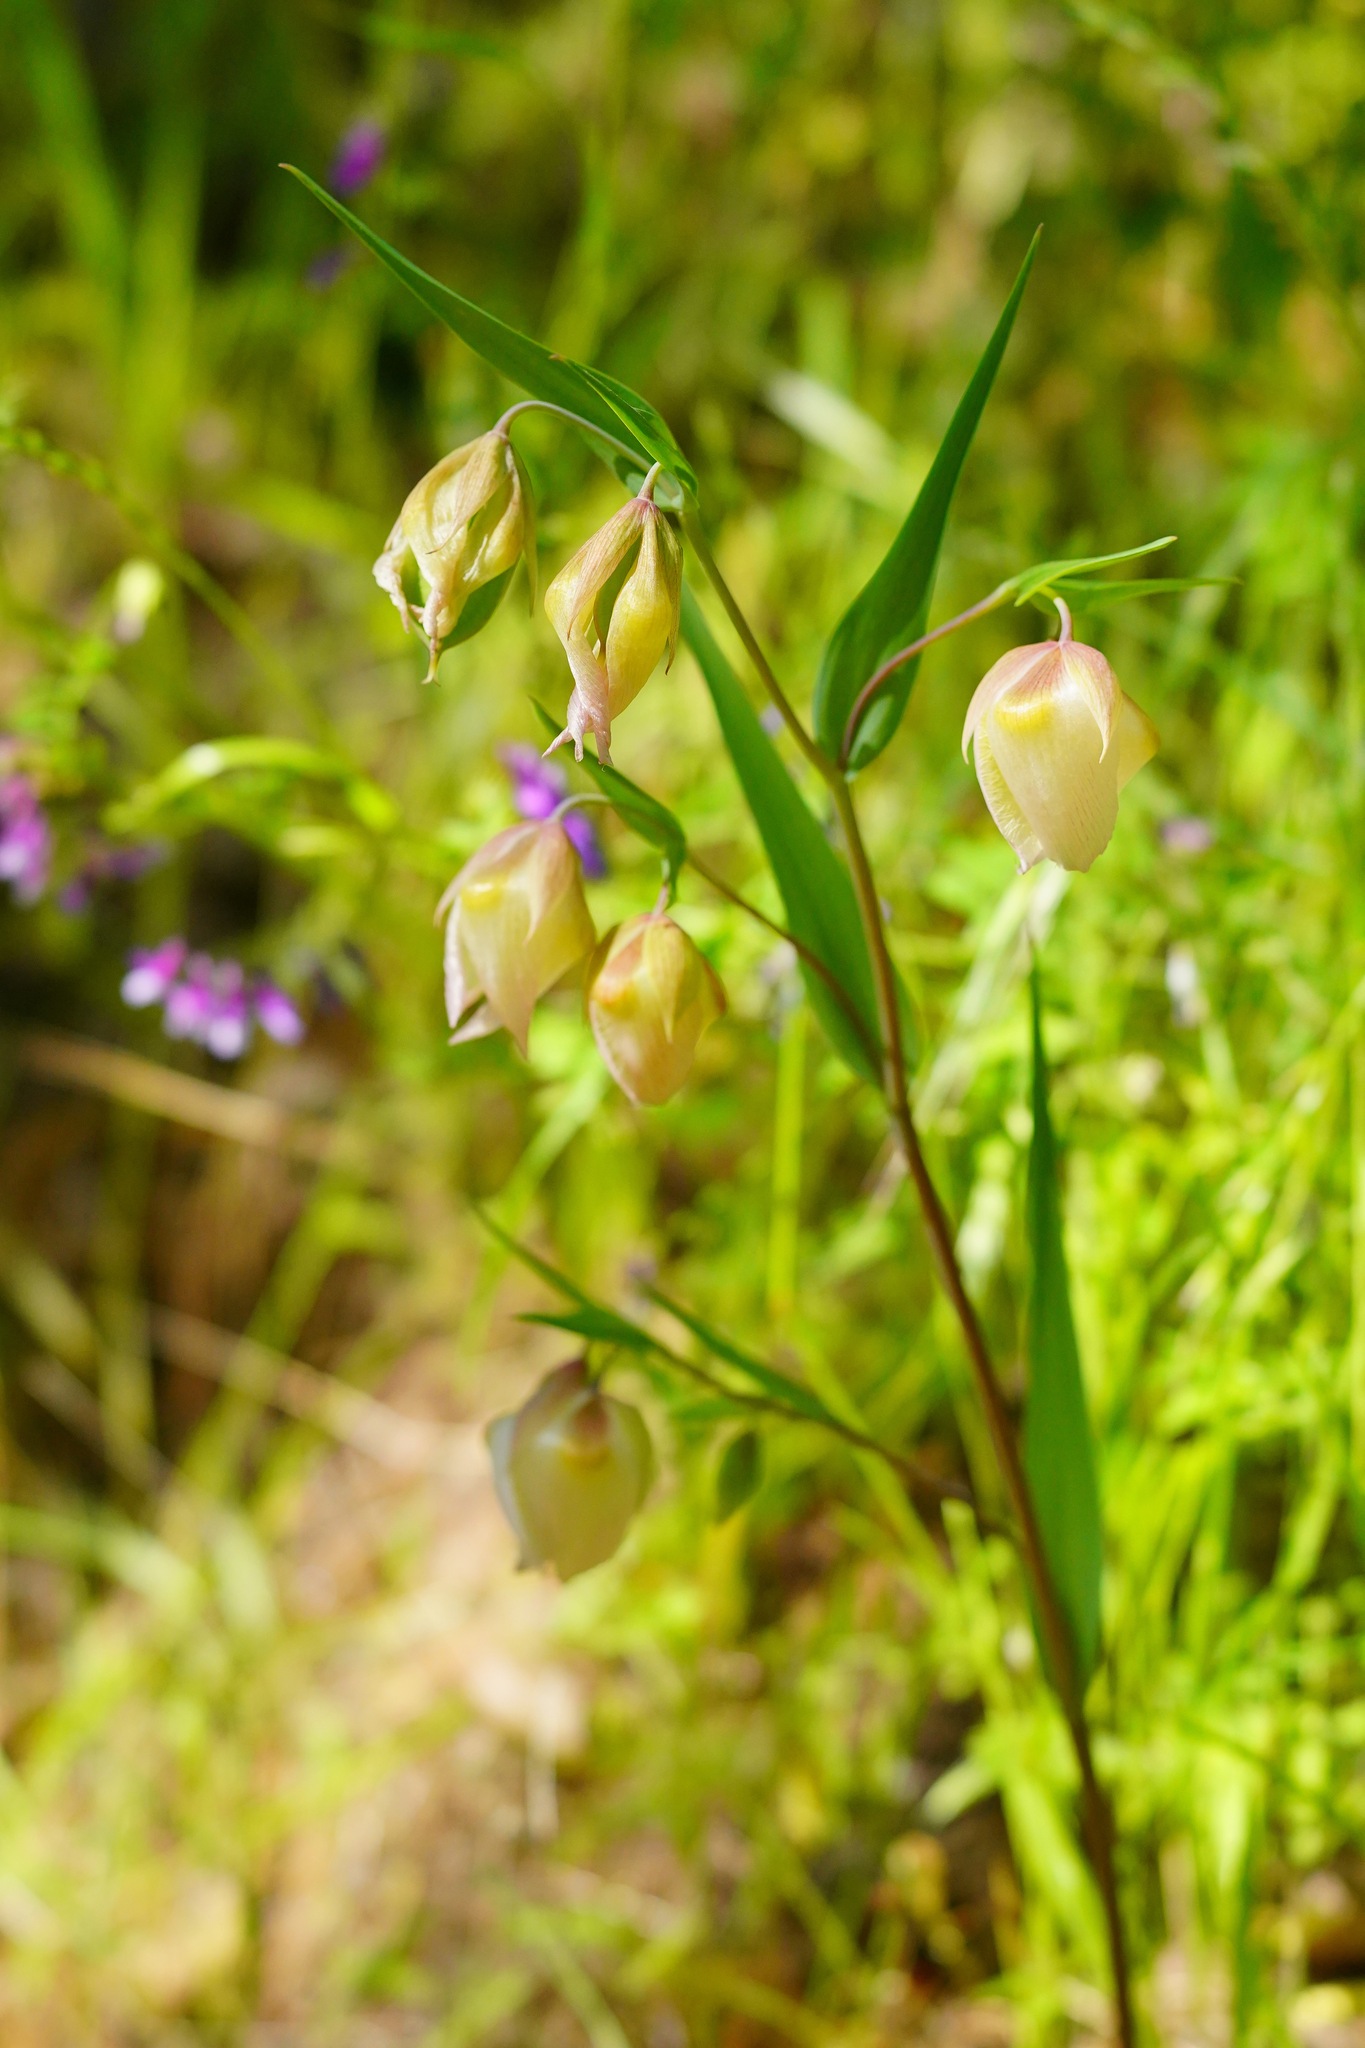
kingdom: Plantae
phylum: Tracheophyta
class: Liliopsida
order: Liliales
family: Liliaceae
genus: Calochortus
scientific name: Calochortus albus
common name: Fairy-lantern
